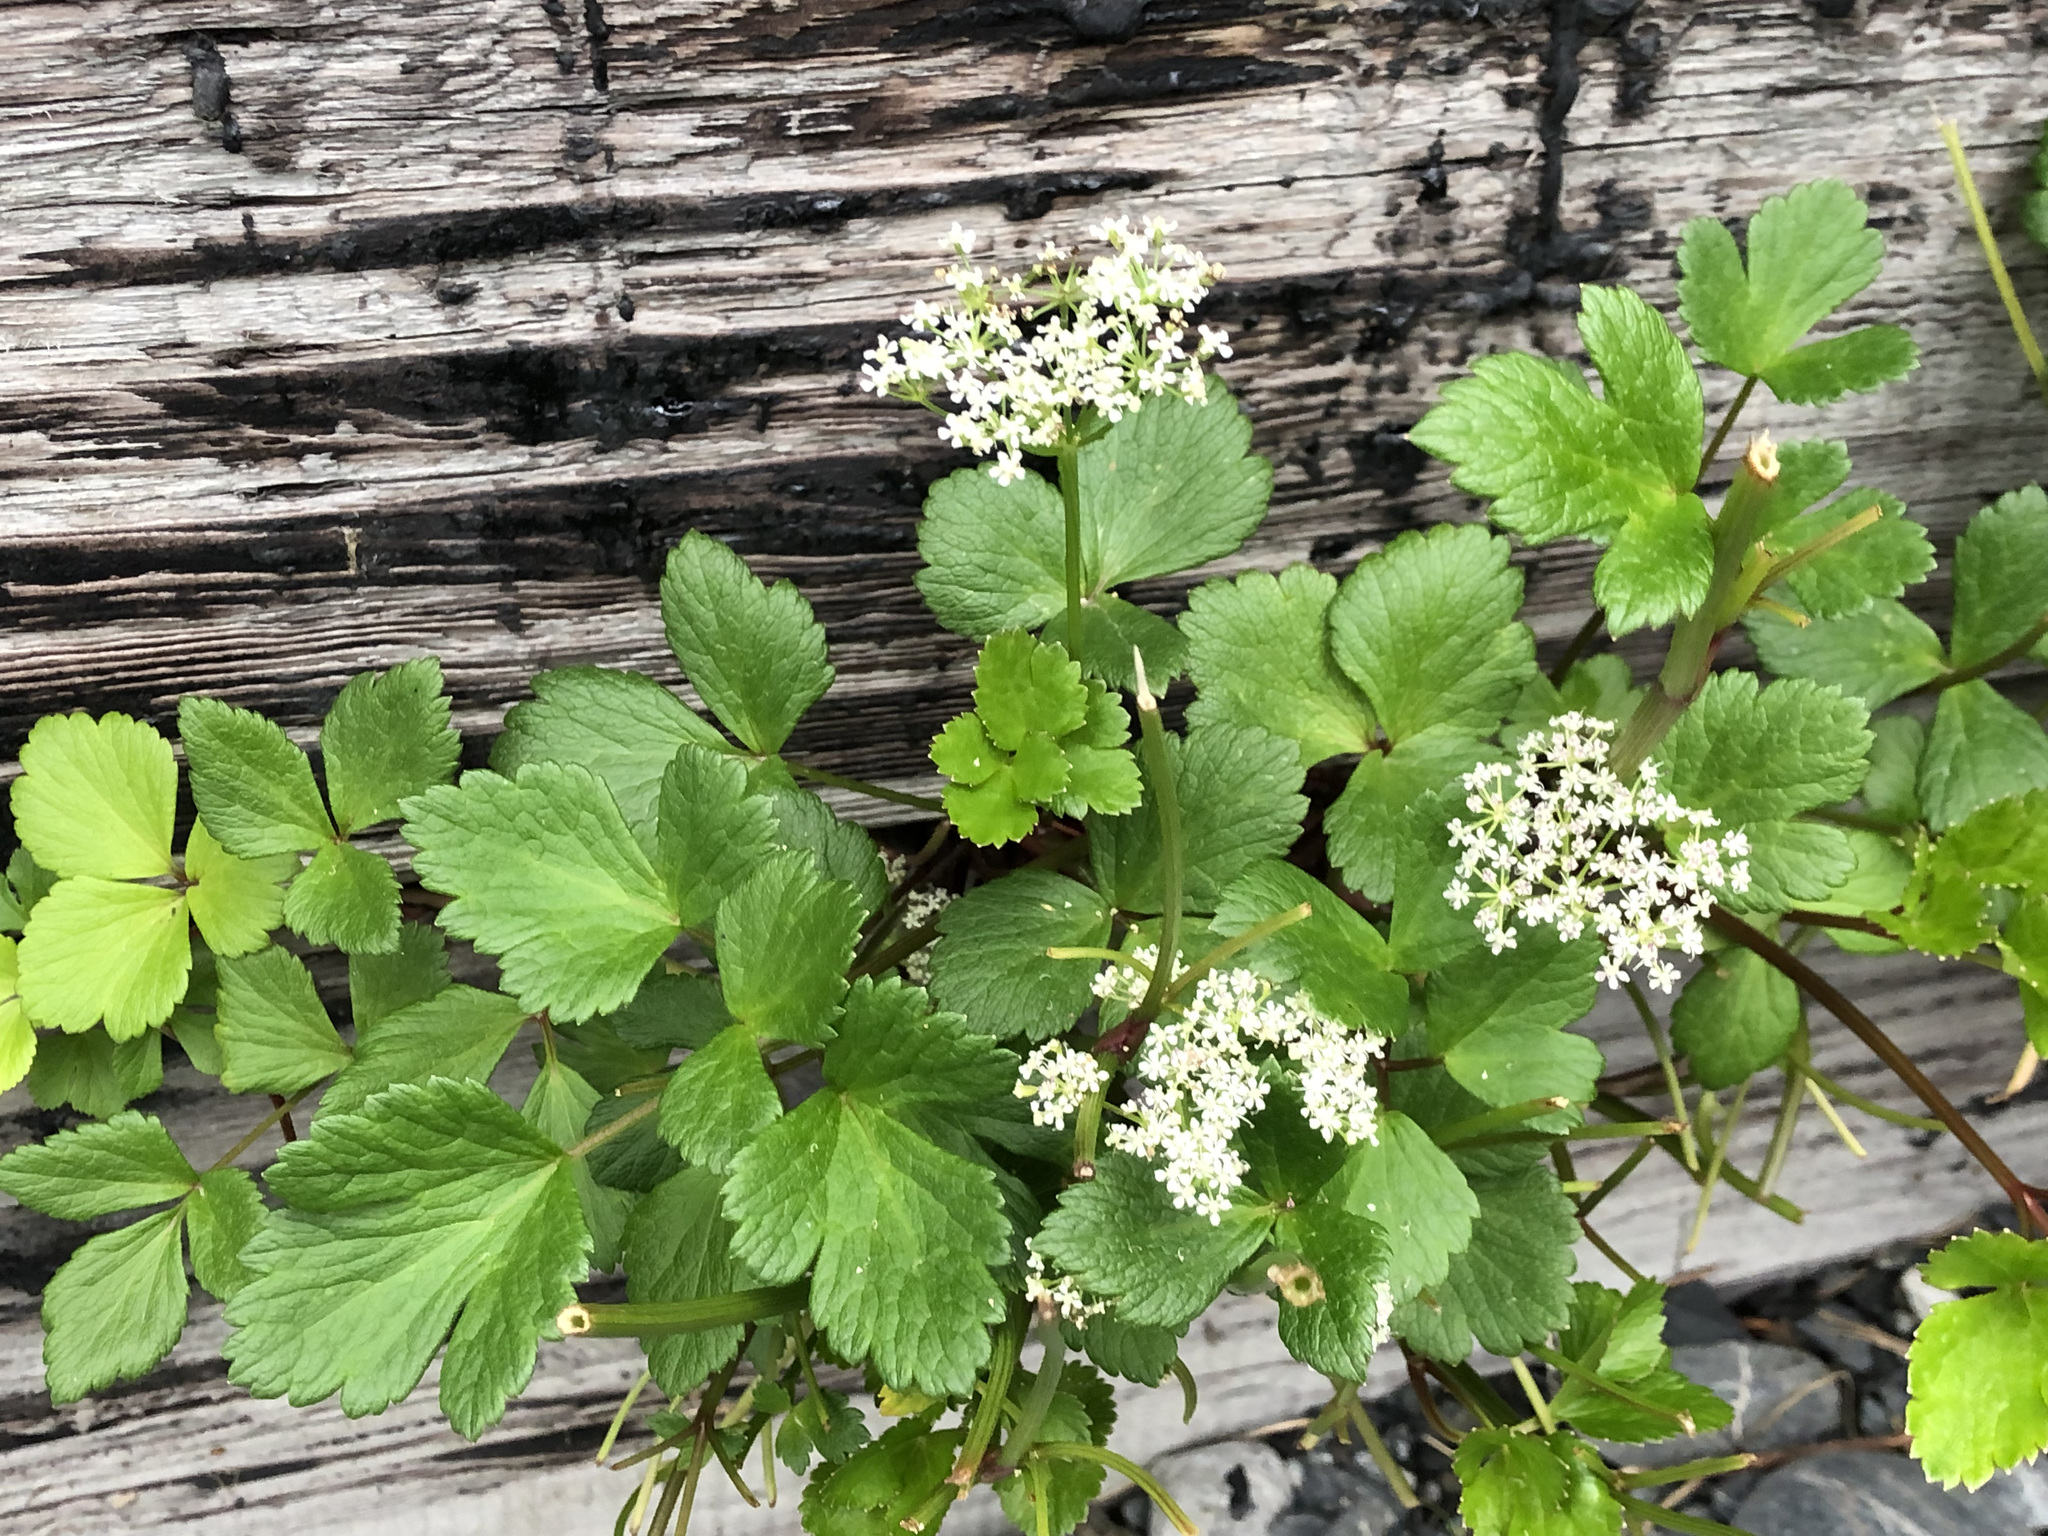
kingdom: Plantae
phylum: Tracheophyta
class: Magnoliopsida
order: Apiales
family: Apiaceae
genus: Ligusticum
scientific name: Ligusticum scothicum
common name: Beach lovage
